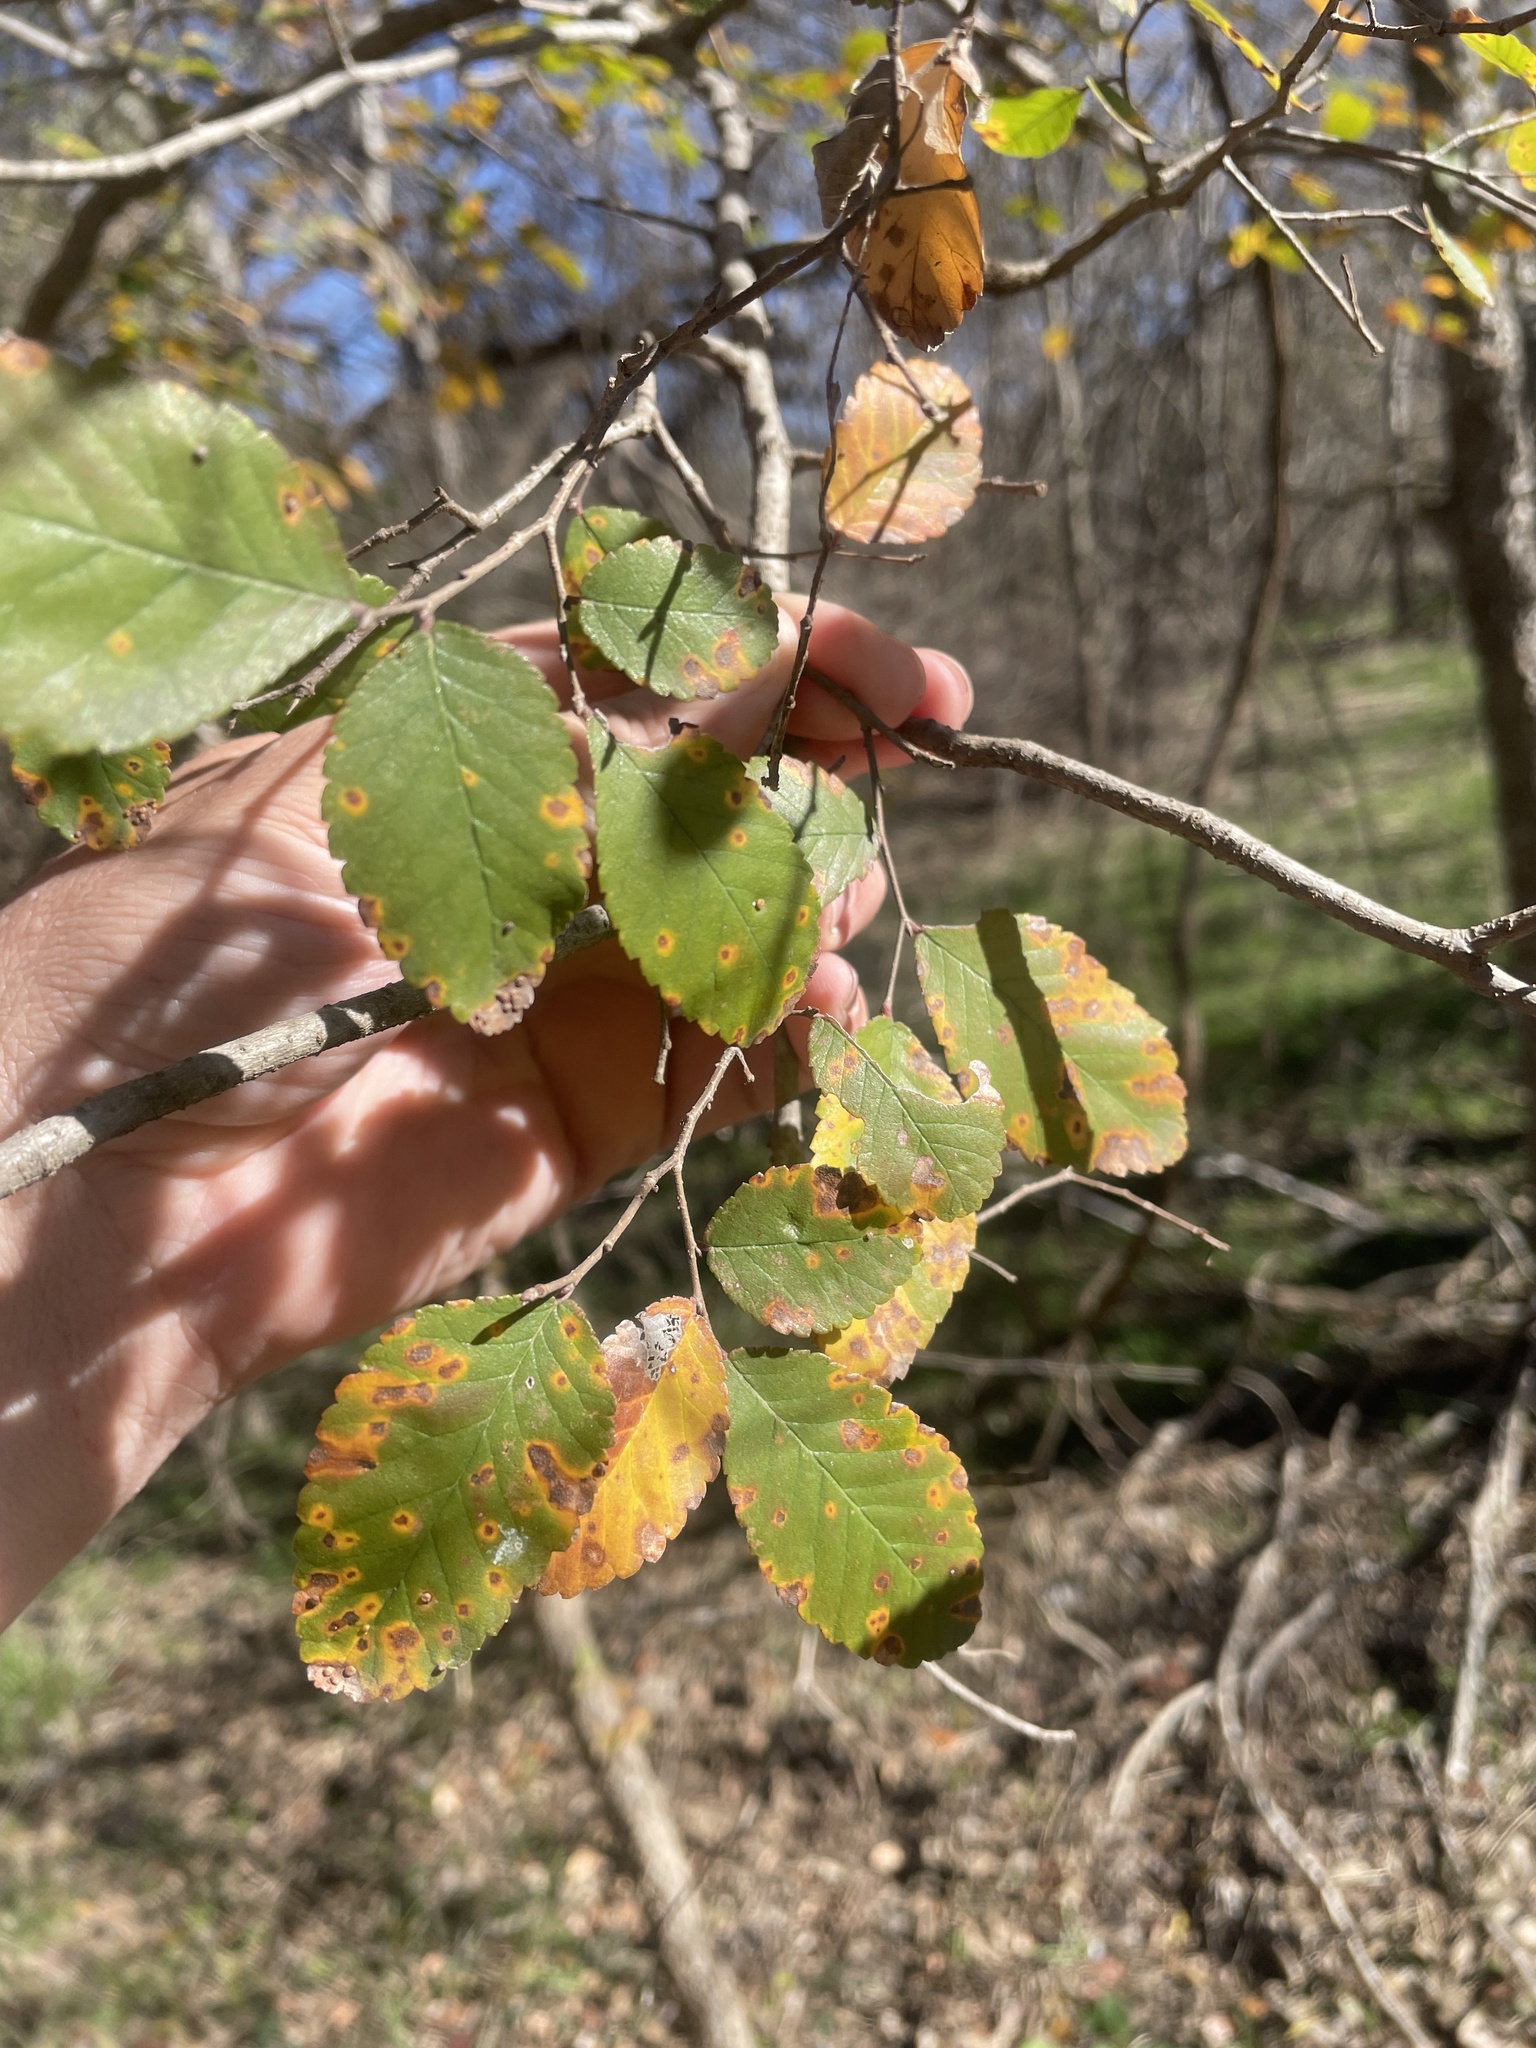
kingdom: Plantae
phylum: Tracheophyta
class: Magnoliopsida
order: Rosales
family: Ulmaceae
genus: Ulmus
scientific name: Ulmus crassifolia
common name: Basket elm
